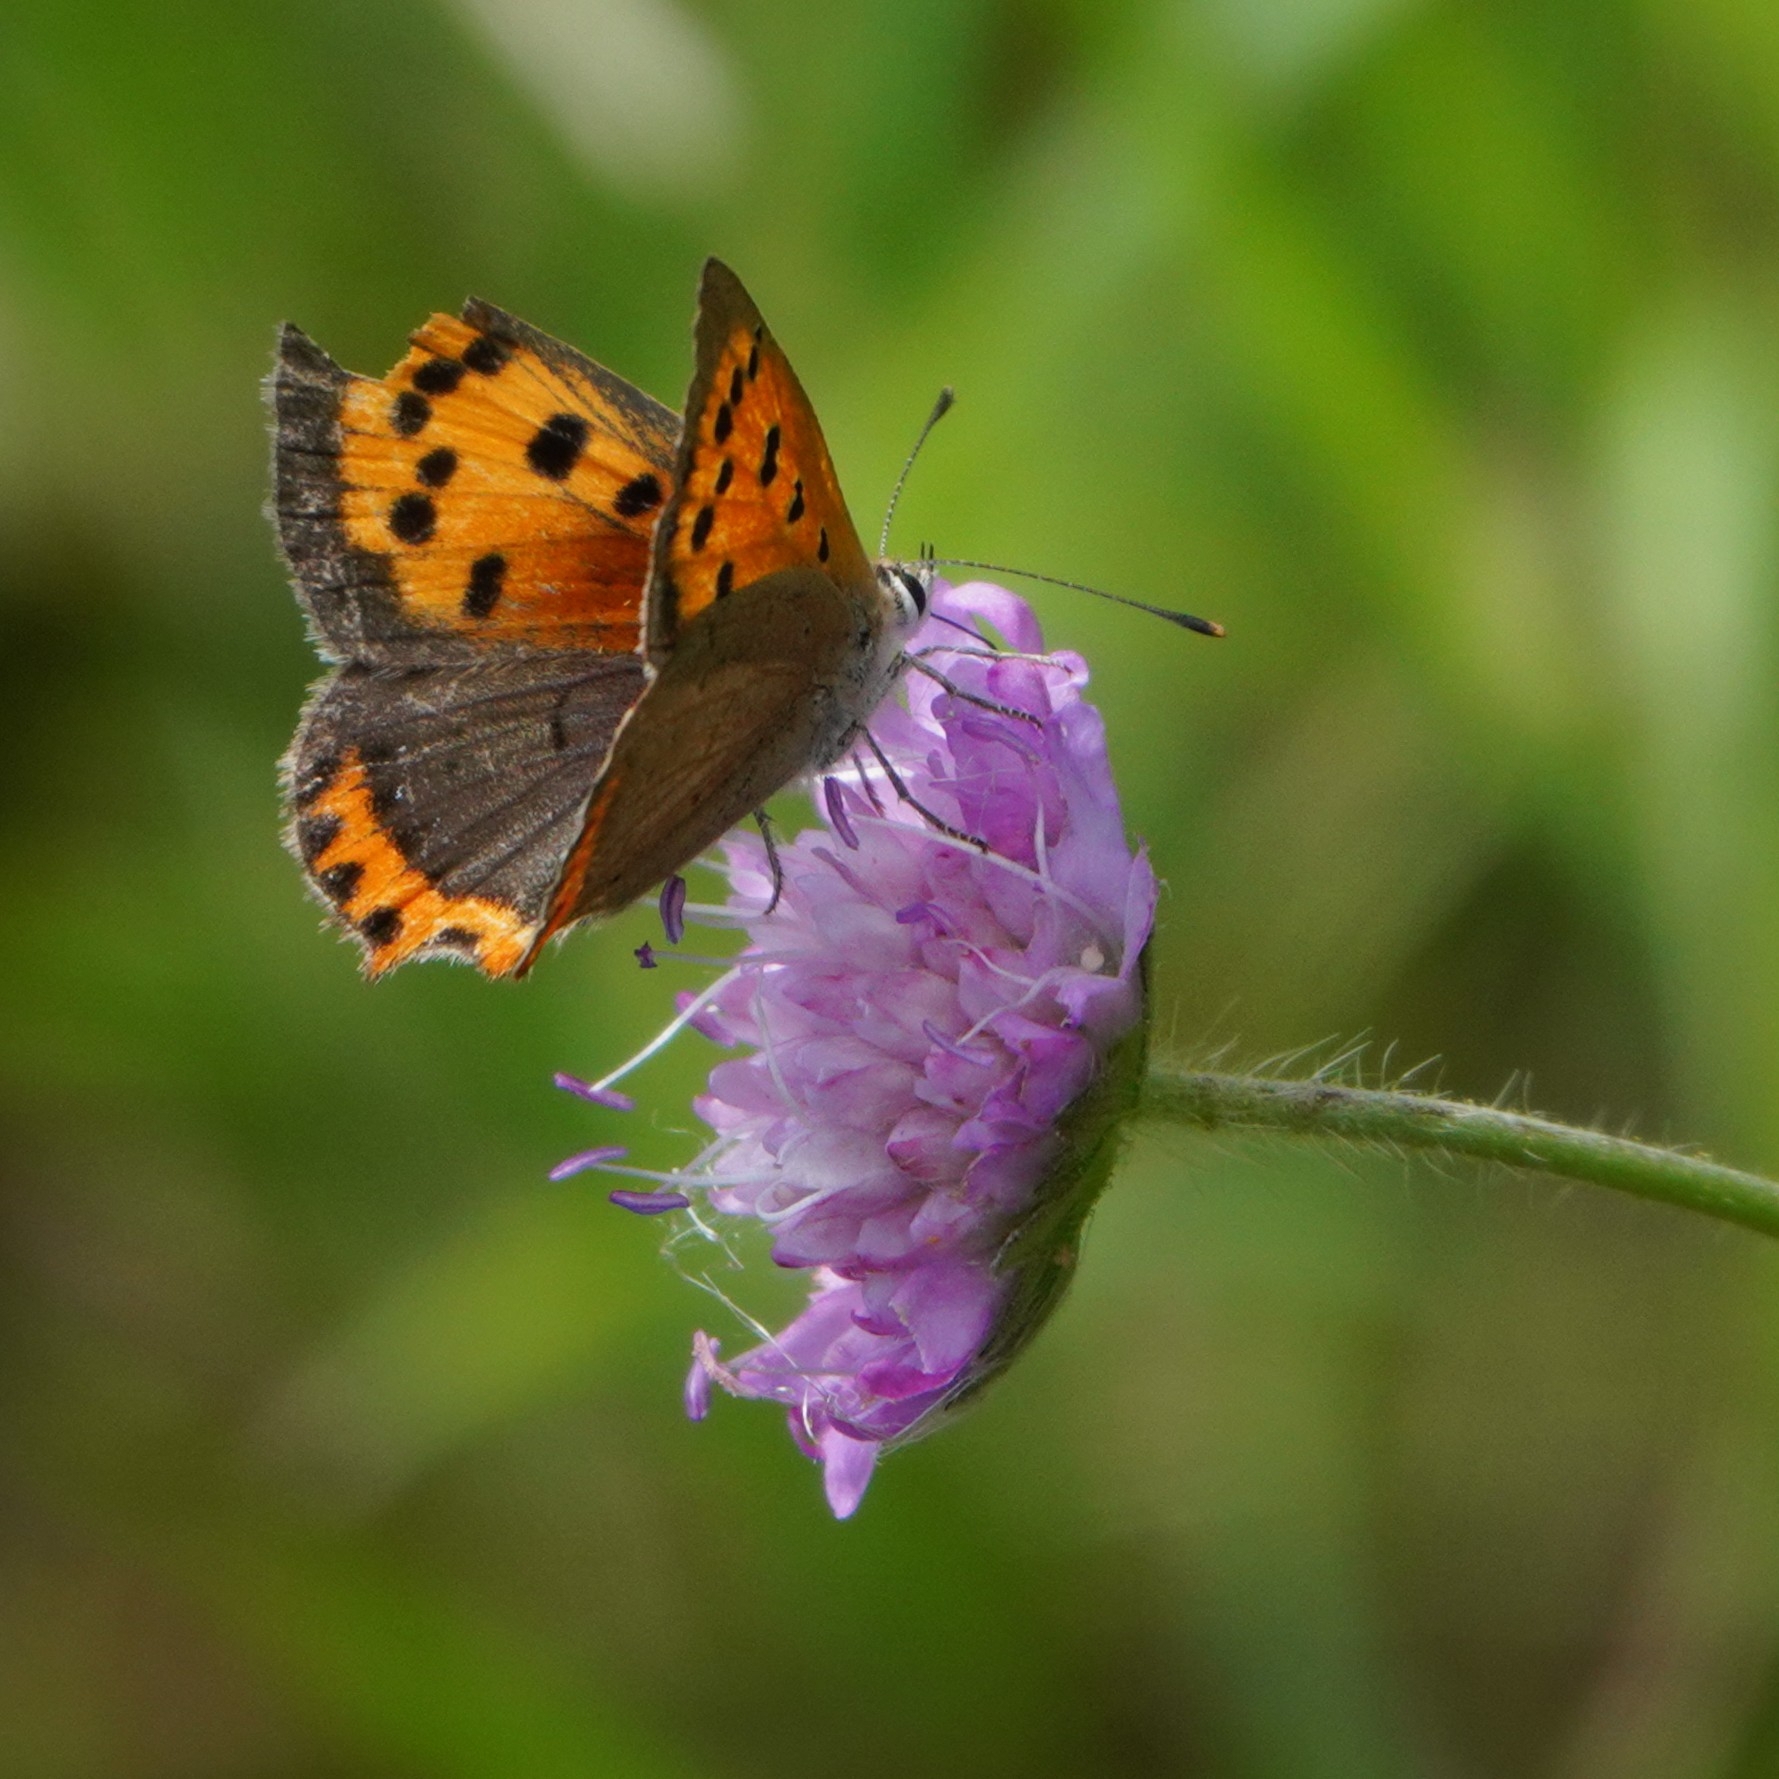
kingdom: Animalia
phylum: Arthropoda
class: Insecta
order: Lepidoptera
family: Lycaenidae
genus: Lycaena
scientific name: Lycaena phlaeas
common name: Small copper
